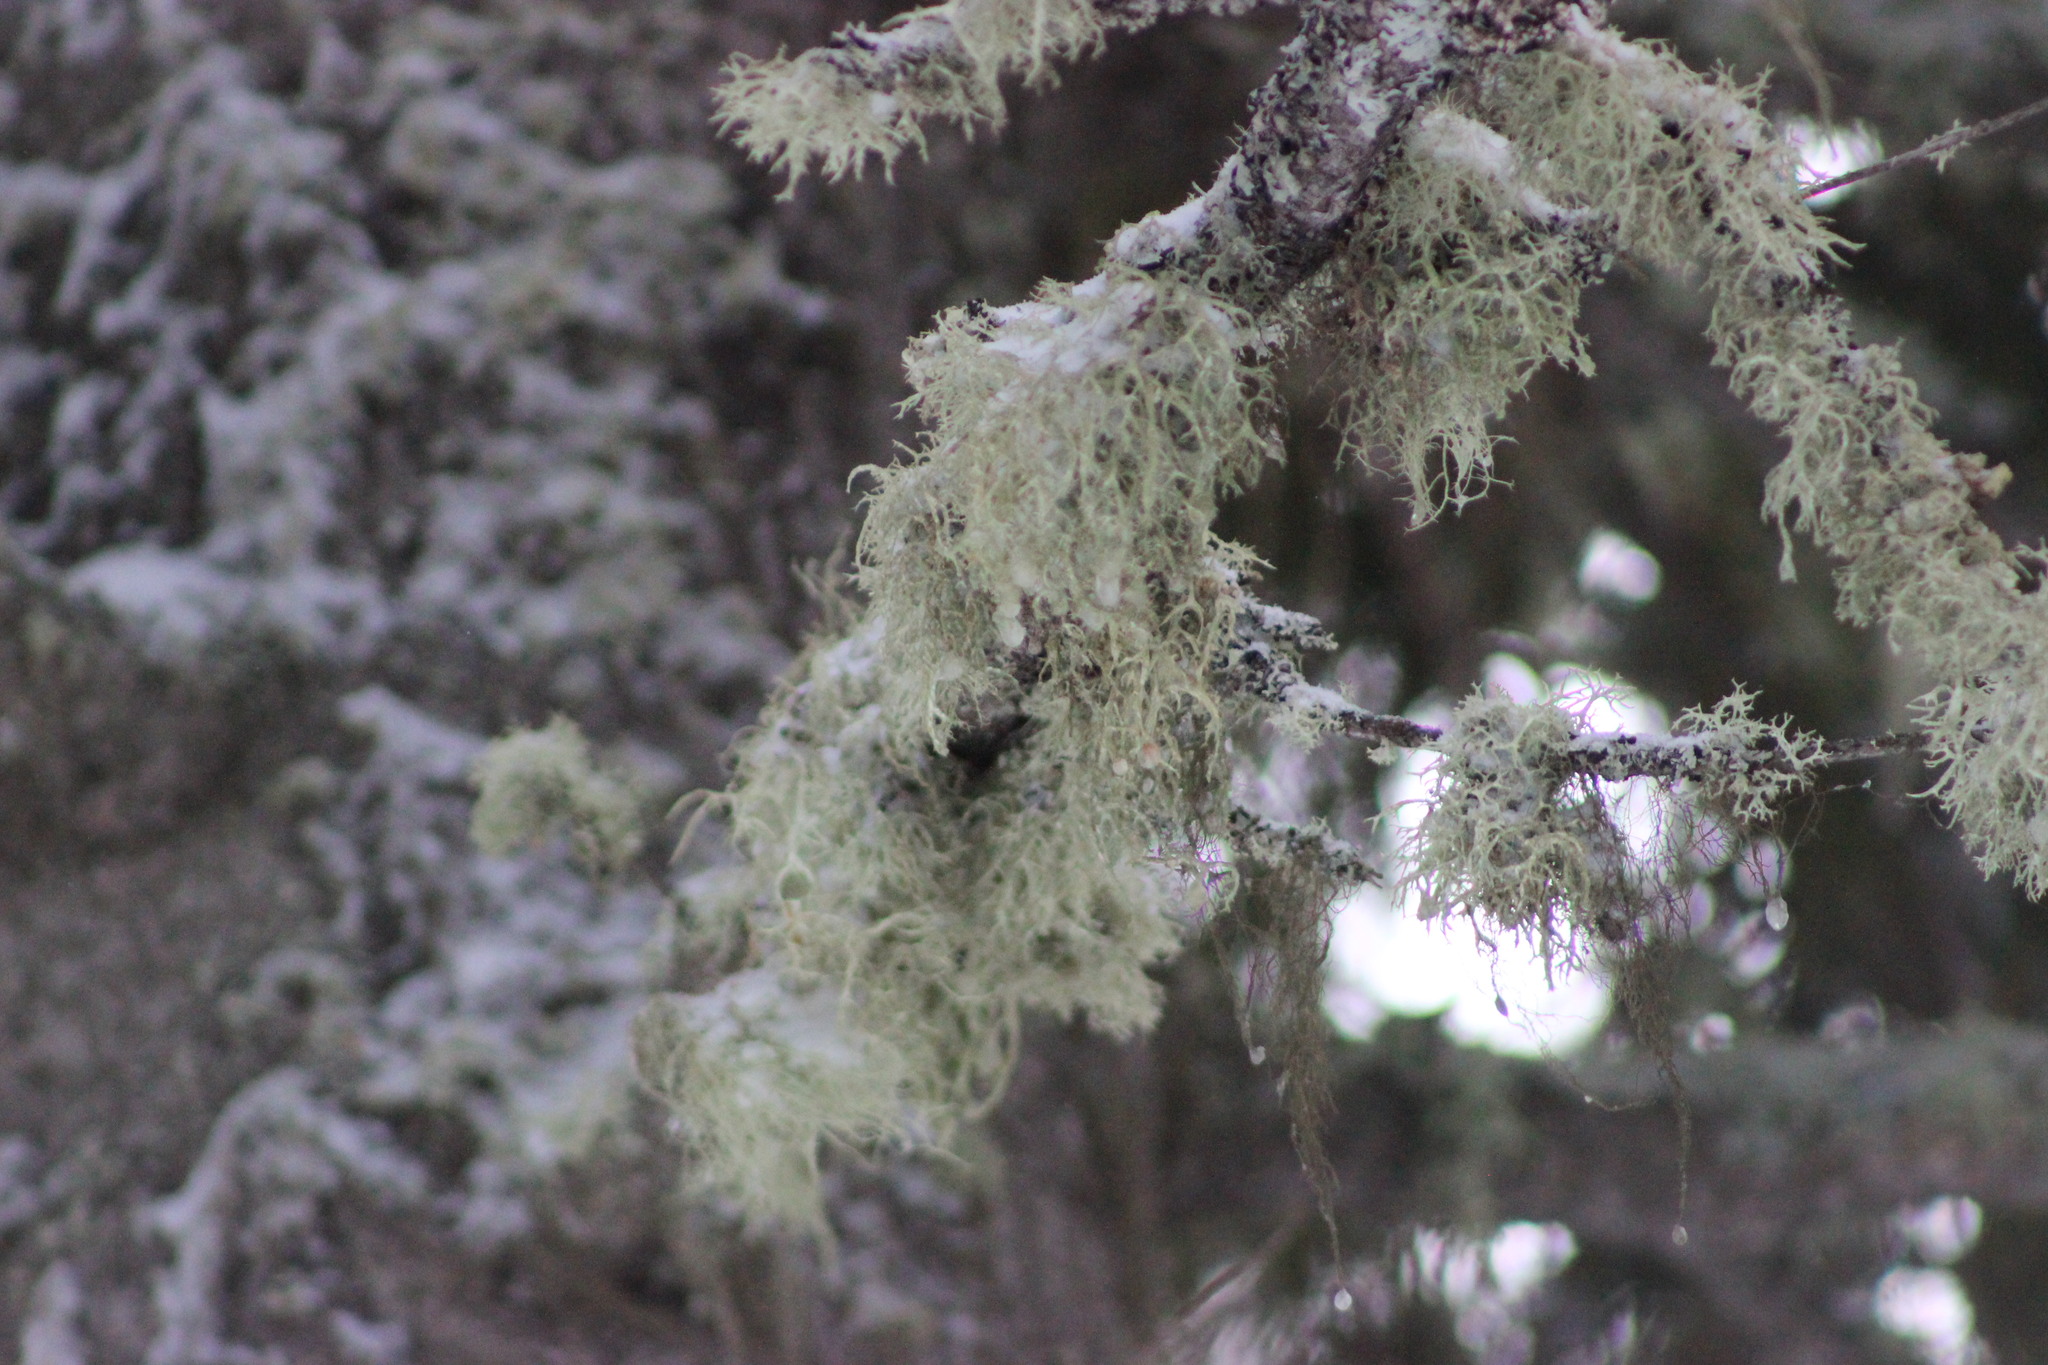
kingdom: Fungi
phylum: Ascomycota
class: Lecanoromycetes
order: Lecanorales
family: Parmeliaceae
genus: Evernia
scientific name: Evernia mesomorpha
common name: Boreal oak moss lichen
